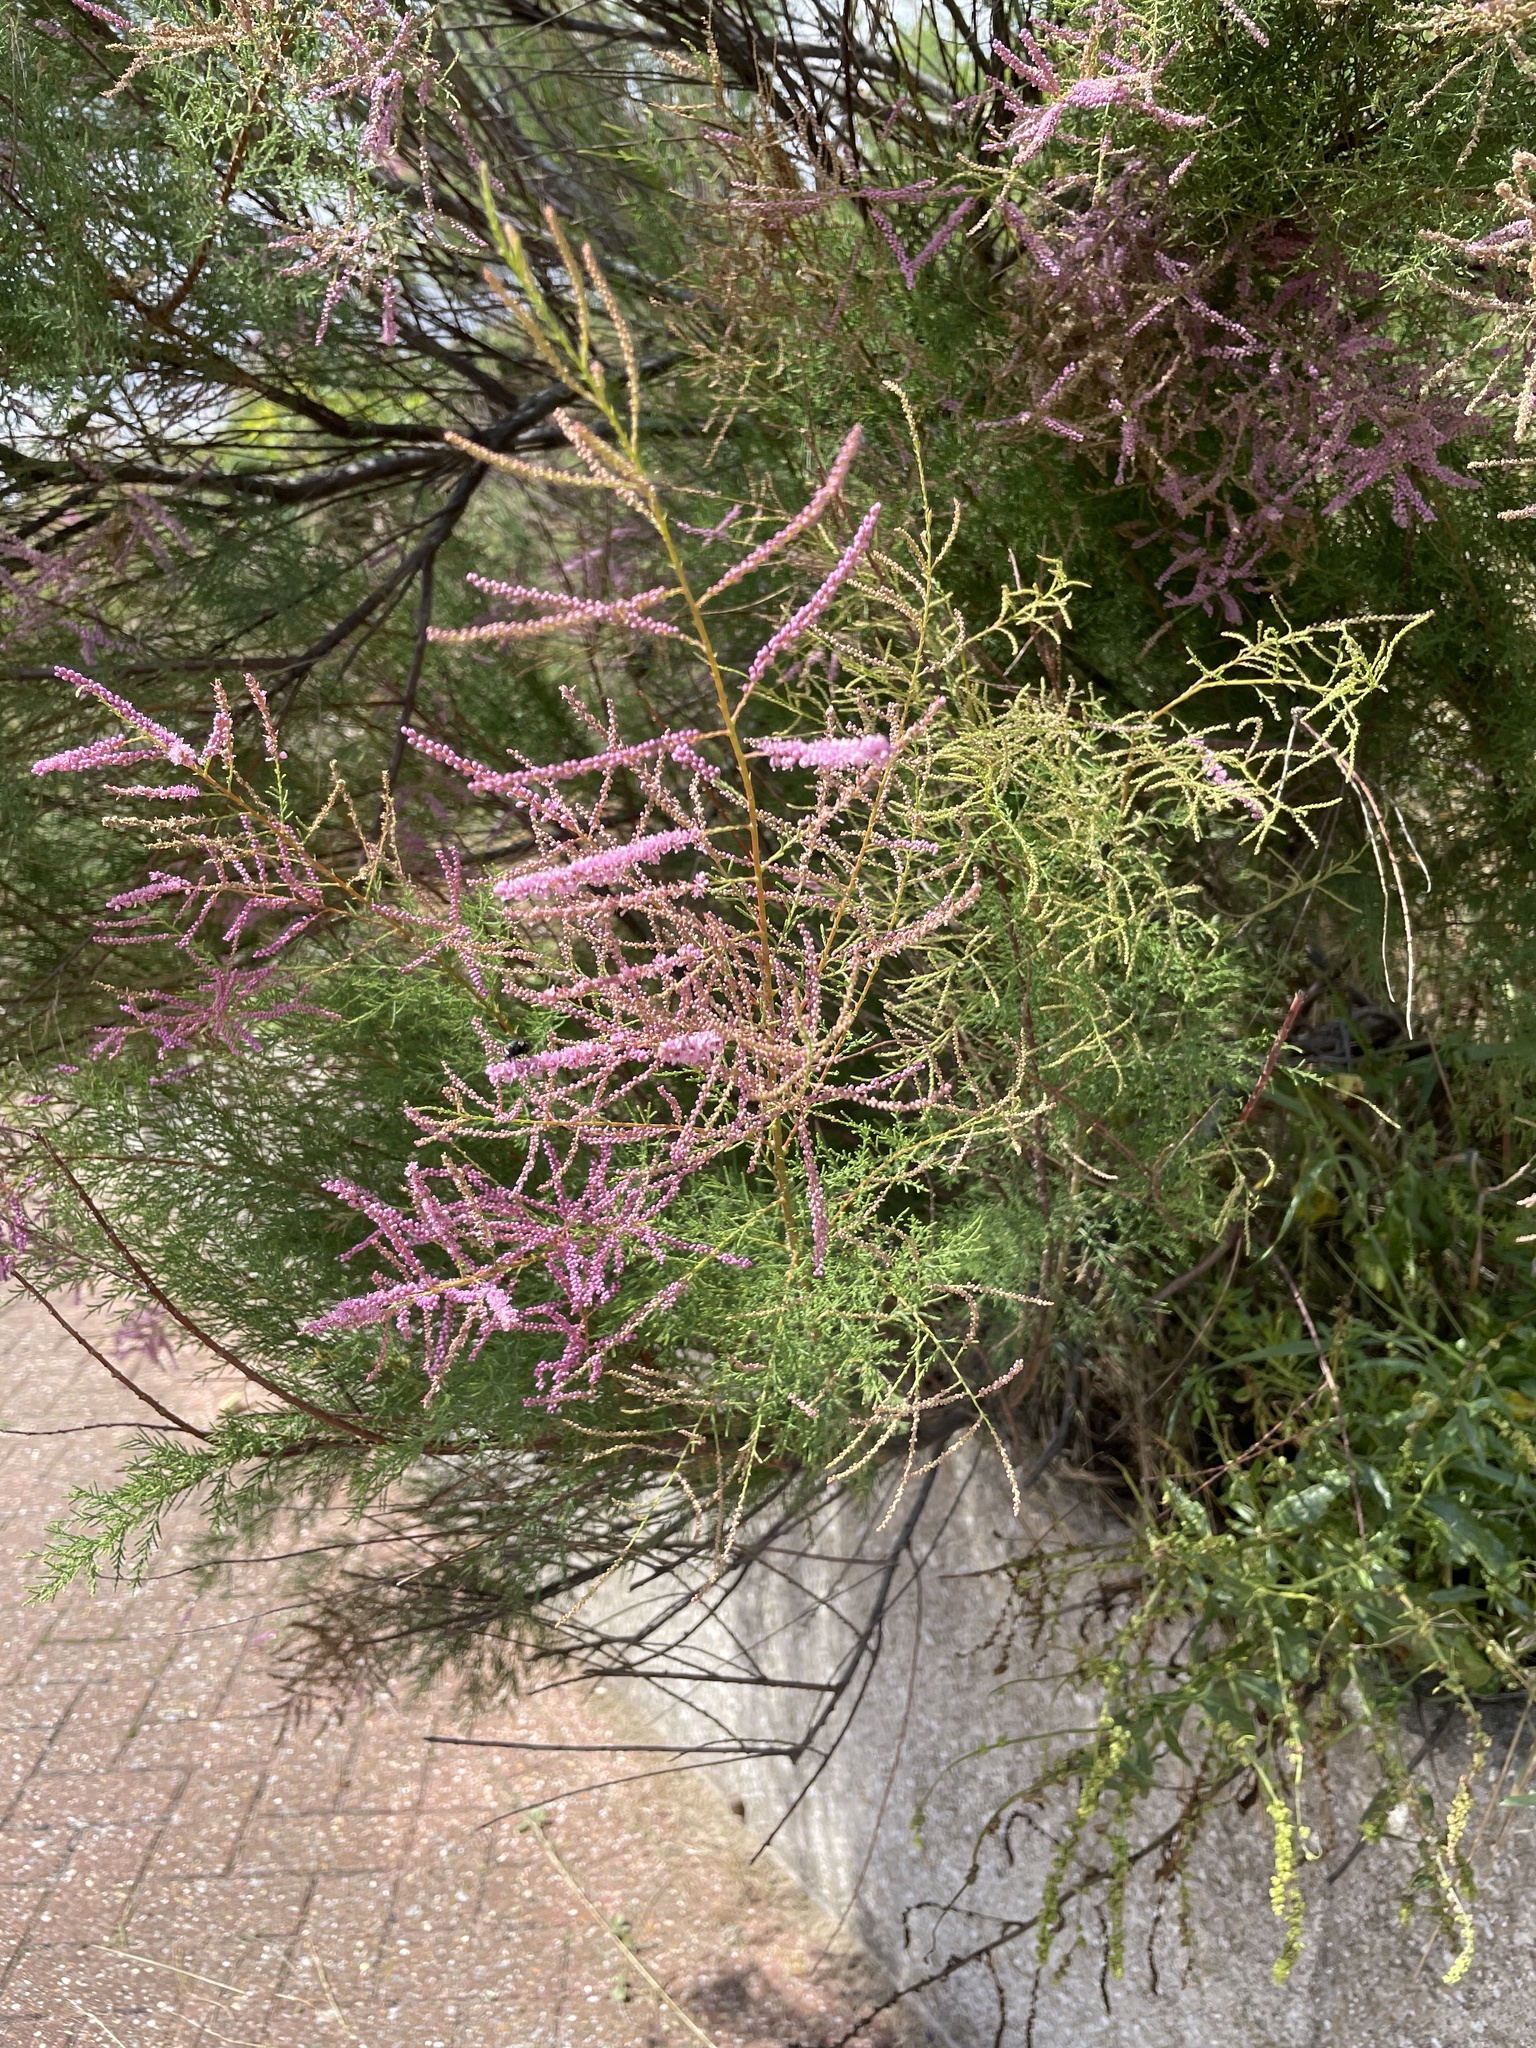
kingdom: Plantae
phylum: Tracheophyta
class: Magnoliopsida
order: Caryophyllales
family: Tamaricaceae
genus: Tamarix
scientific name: Tamarix gallica
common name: Tamarisk
